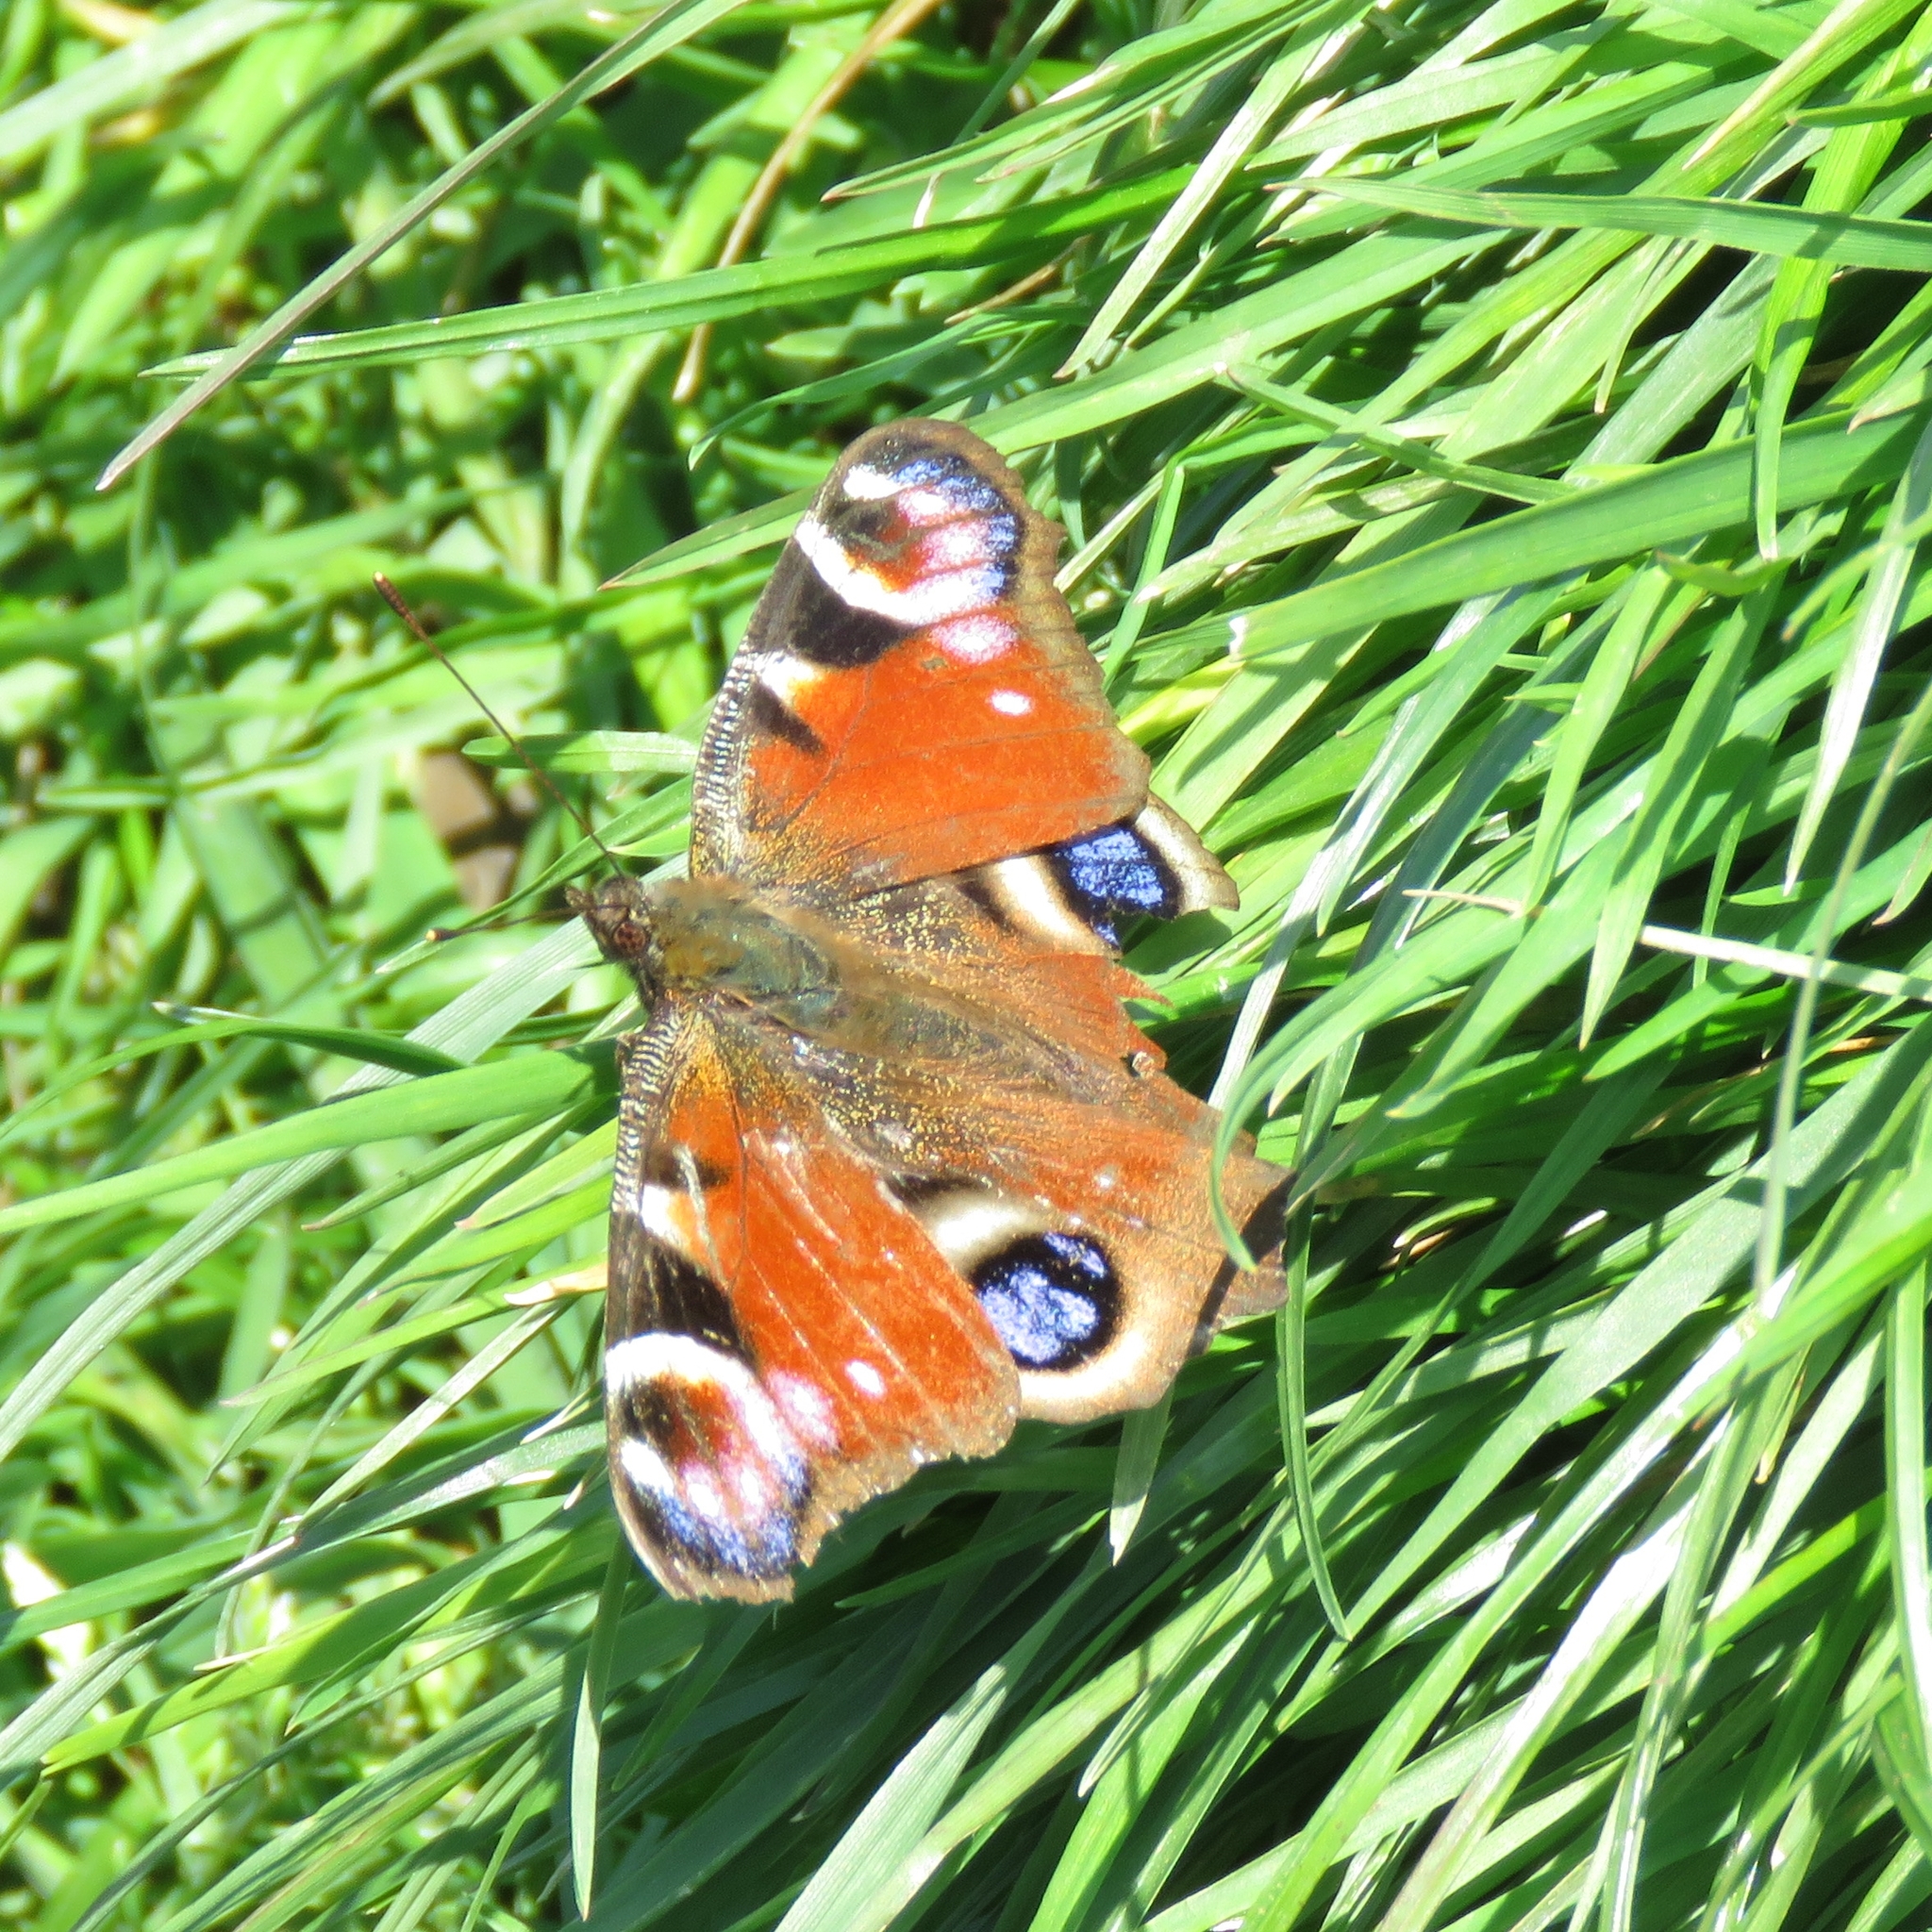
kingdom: Animalia
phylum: Arthropoda
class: Insecta
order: Lepidoptera
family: Nymphalidae
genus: Aglais
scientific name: Aglais io
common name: Peacock
